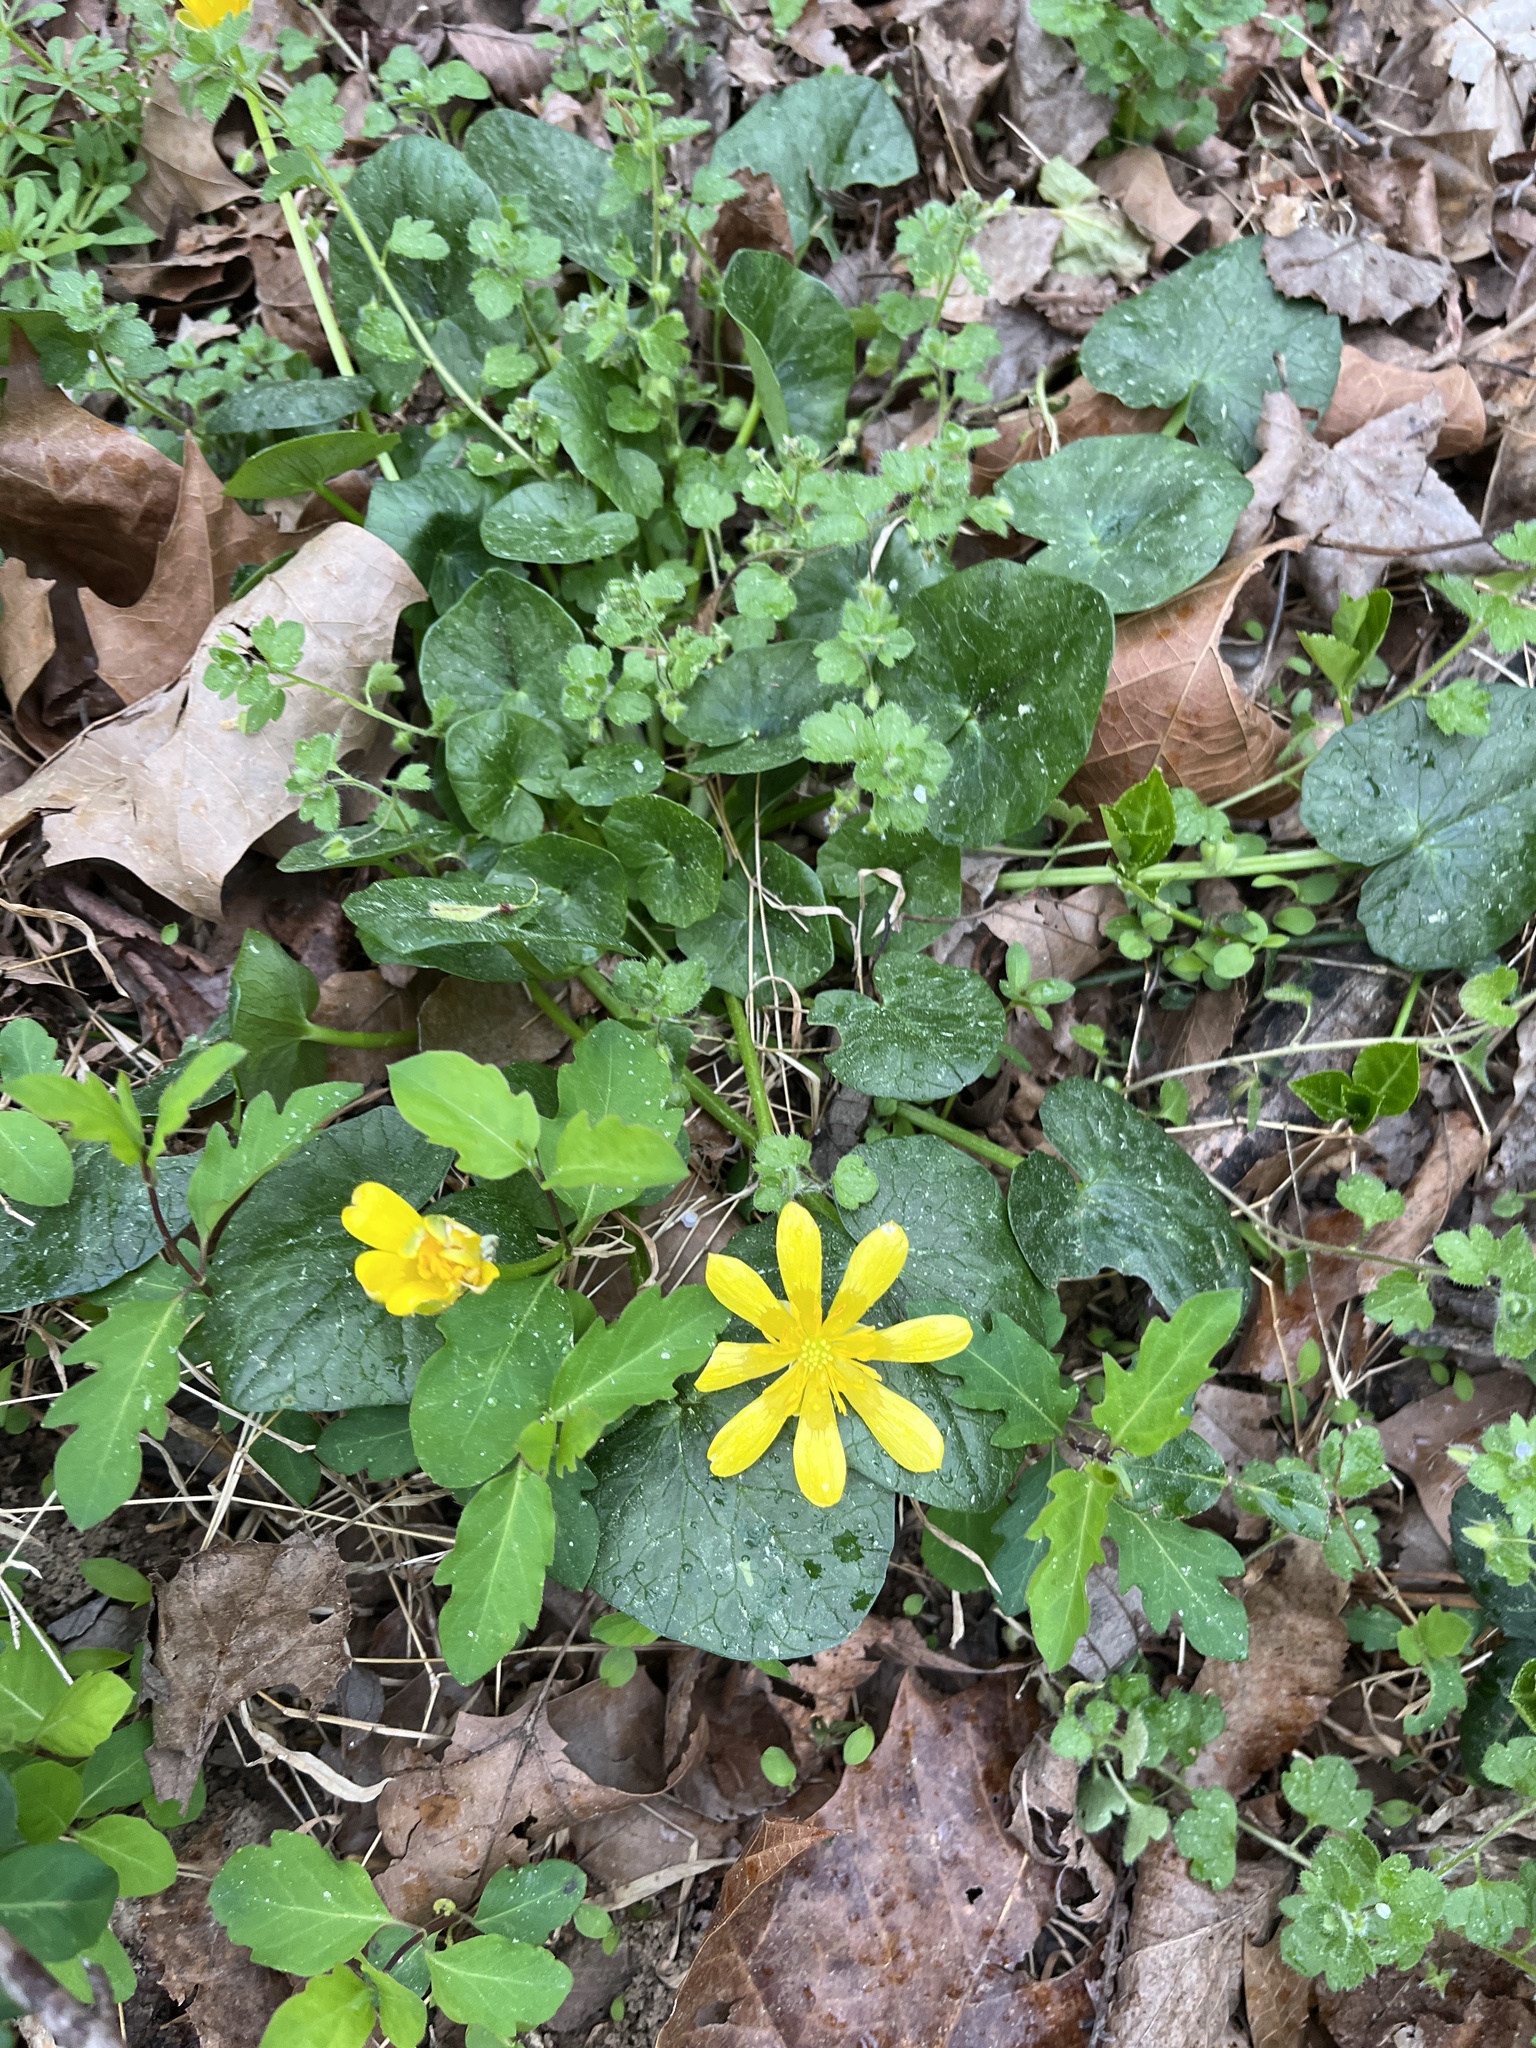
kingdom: Plantae
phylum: Tracheophyta
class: Magnoliopsida
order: Ranunculales
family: Ranunculaceae
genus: Ficaria
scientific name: Ficaria verna
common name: Lesser celandine
